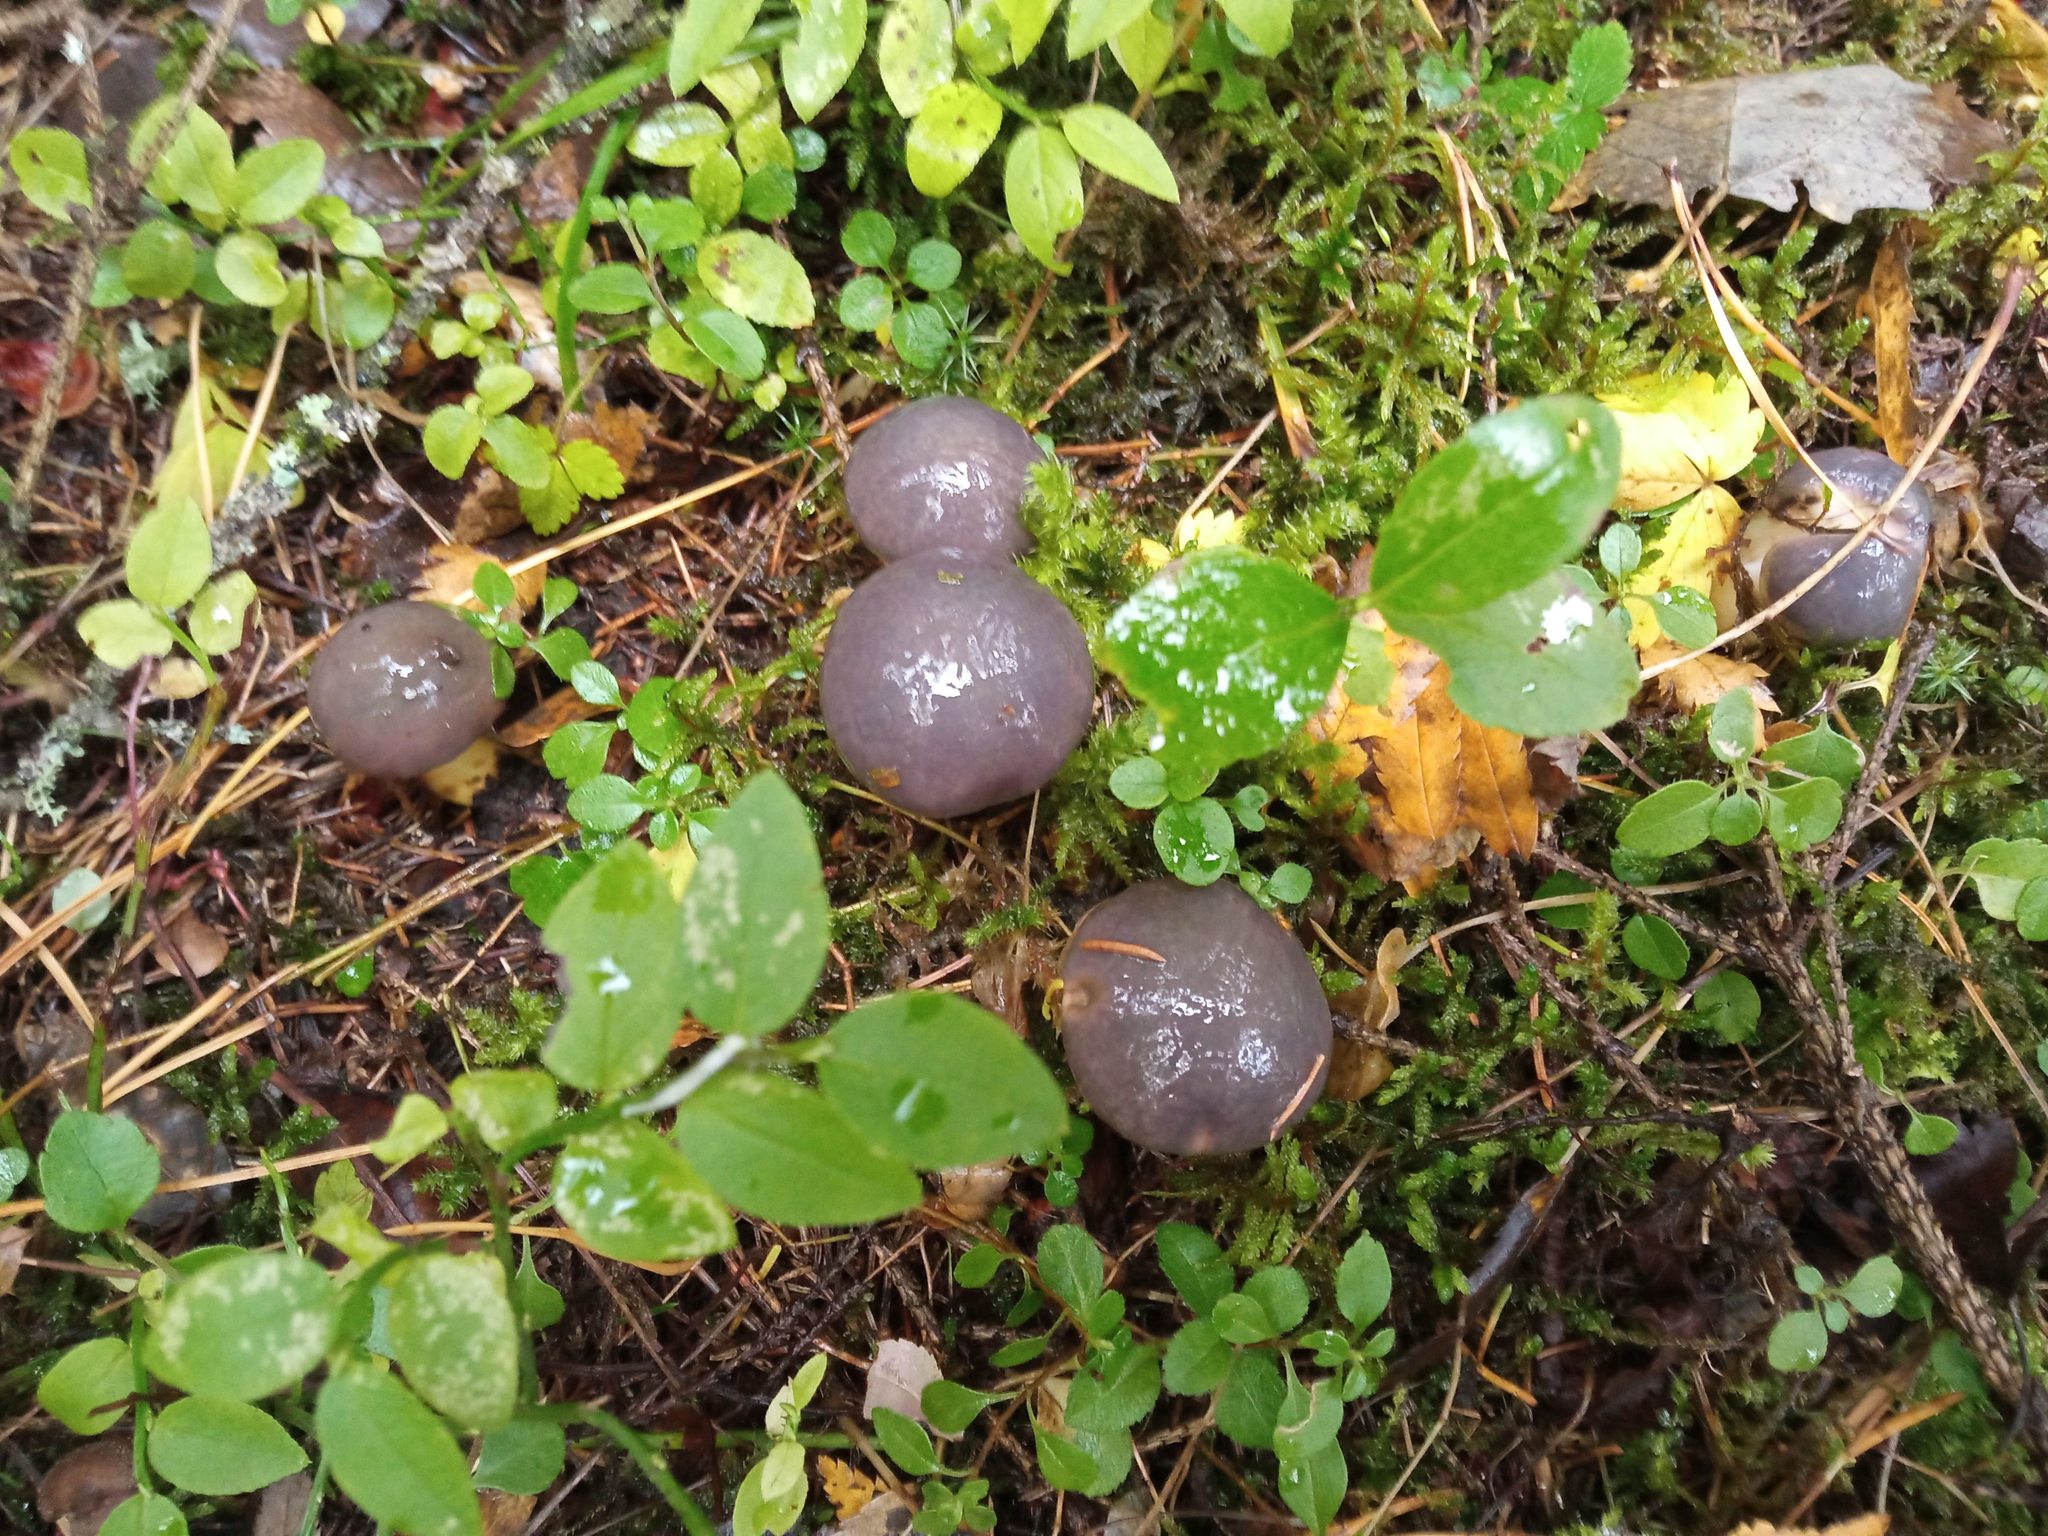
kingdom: Fungi
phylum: Basidiomycota
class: Agaricomycetes
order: Boletales
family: Gomphidiaceae
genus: Gomphidius
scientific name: Gomphidius glutinosus
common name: Slimy spike
